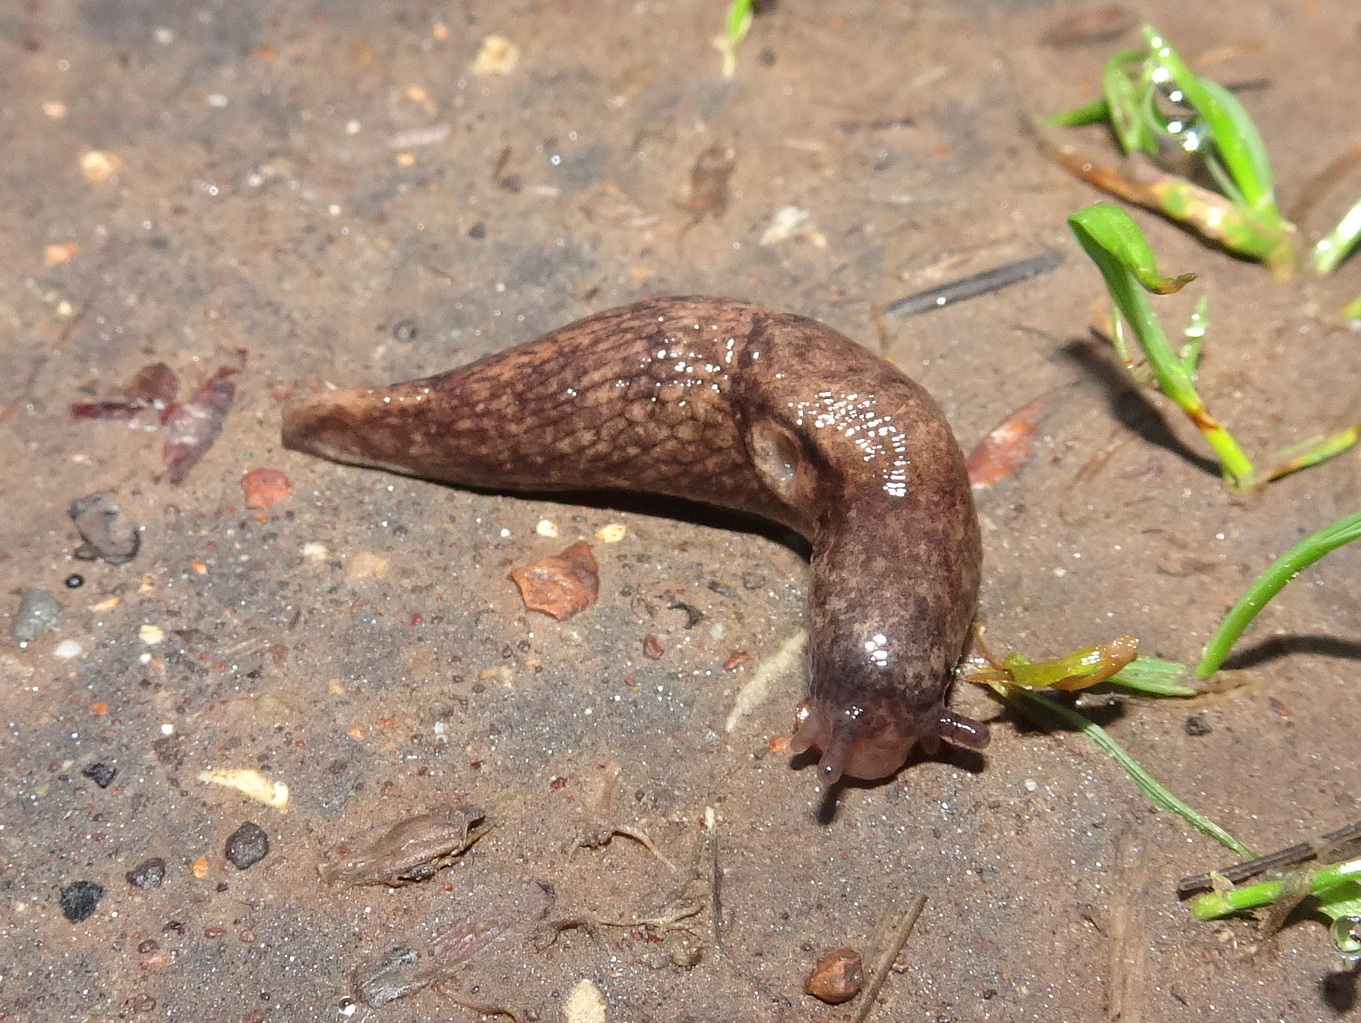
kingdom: Animalia
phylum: Mollusca
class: Gastropoda
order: Stylommatophora
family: Agriolimacidae
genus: Deroceras
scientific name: Deroceras reticulatum
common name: Gray field slug
